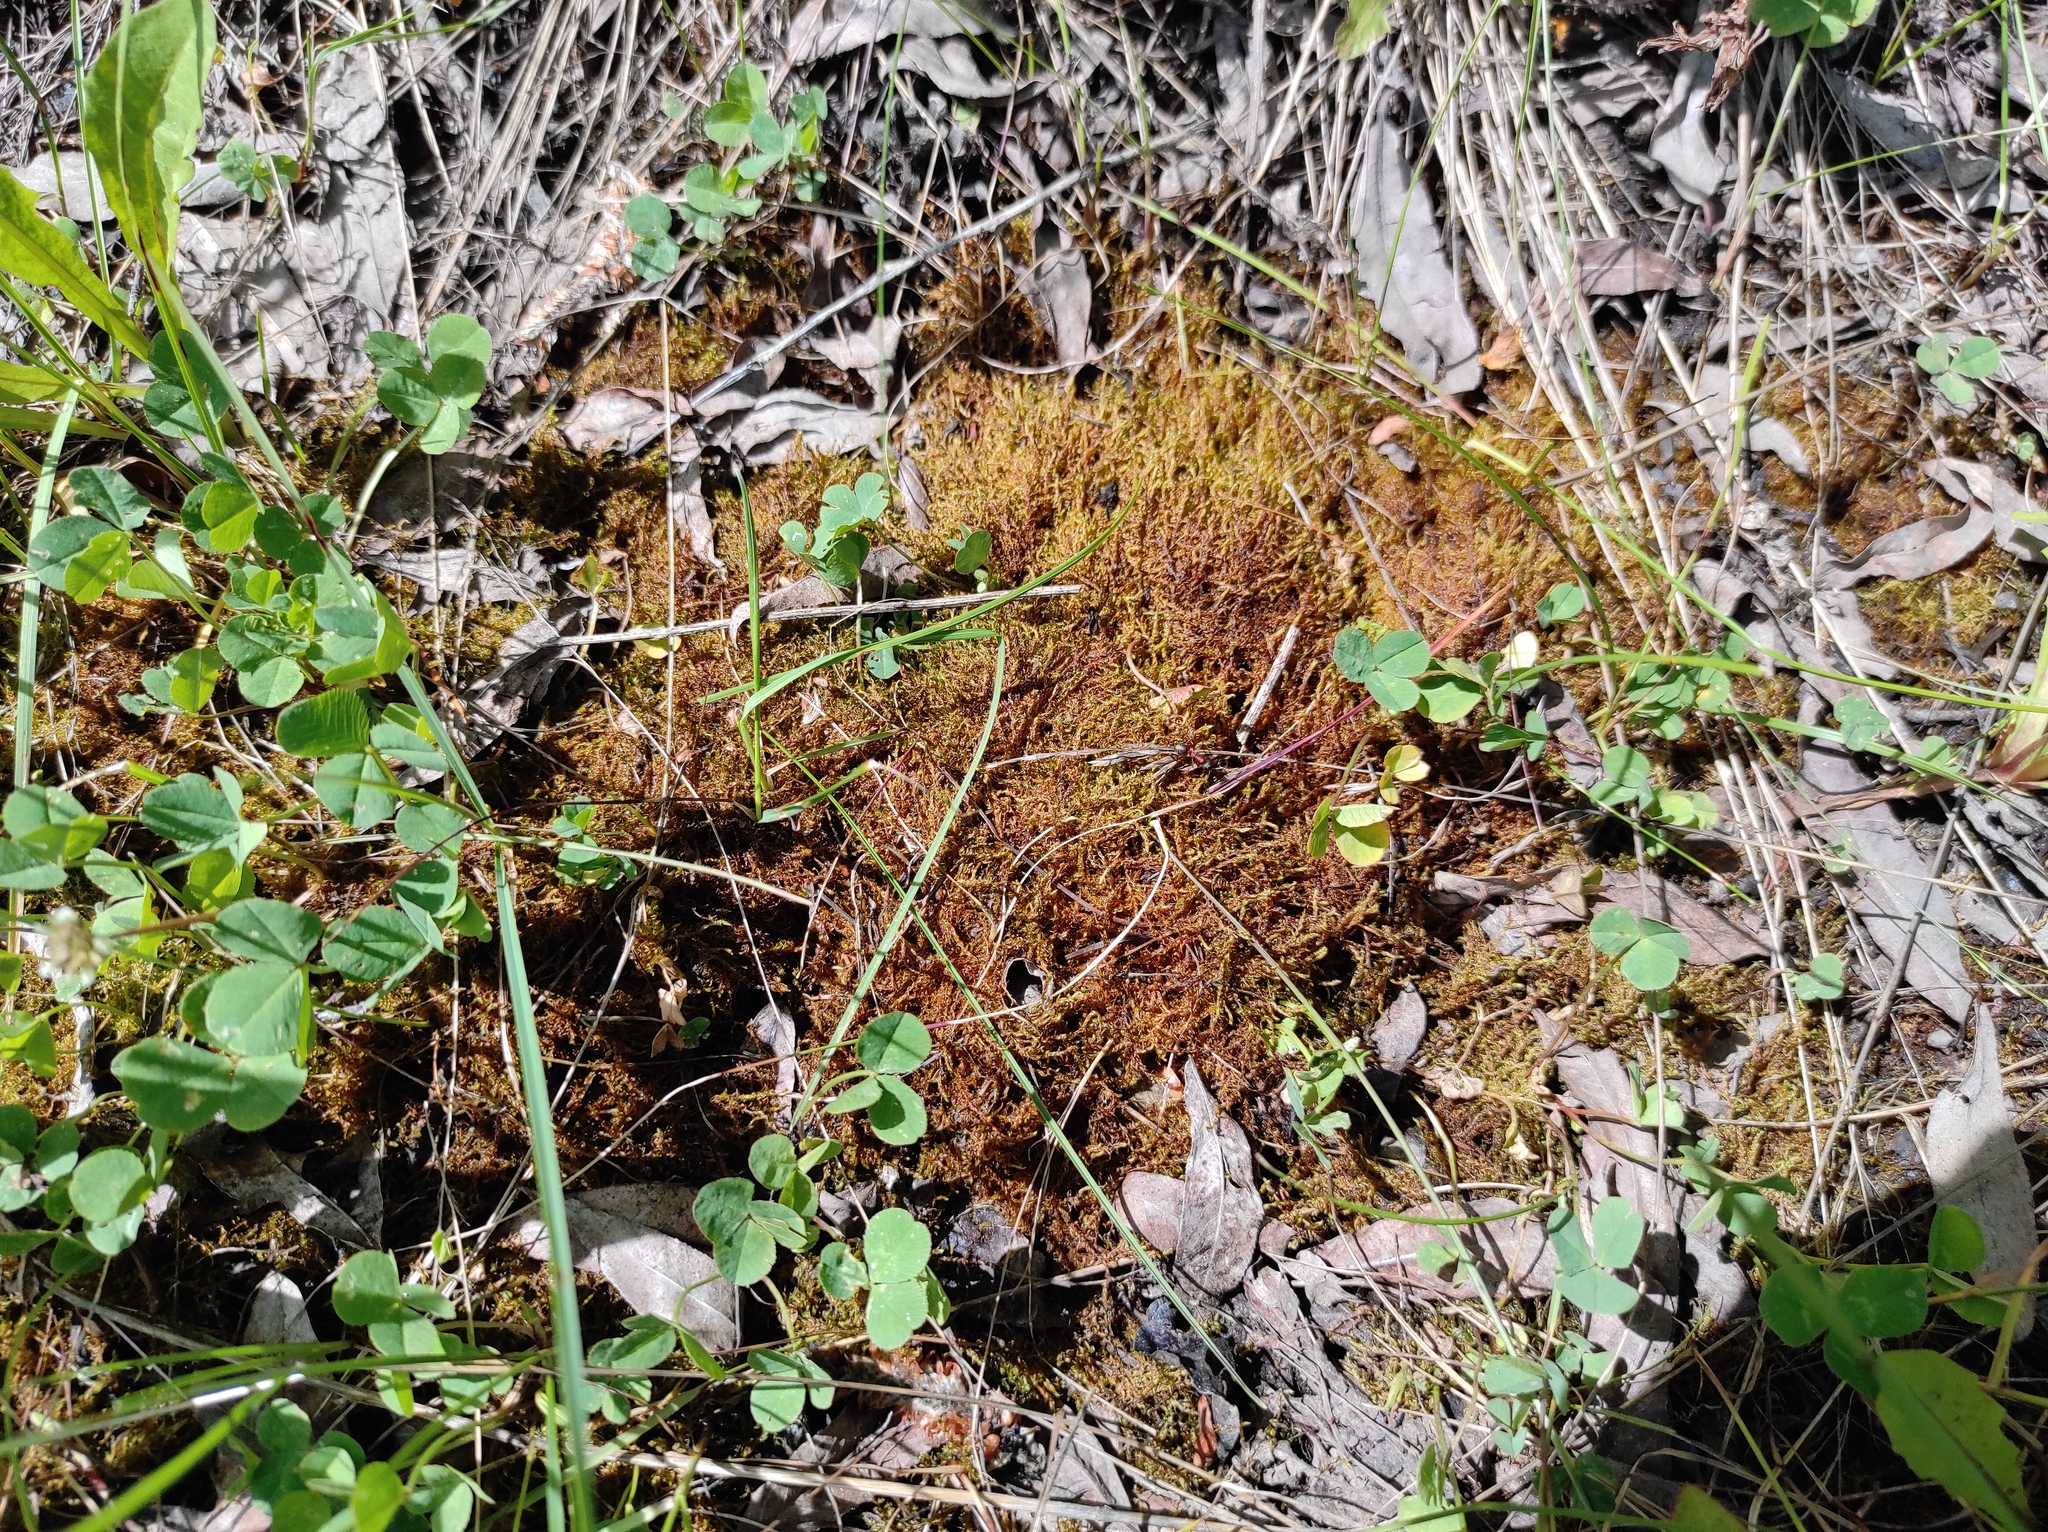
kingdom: Plantae
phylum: Tracheophyta
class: Magnoliopsida
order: Fabales
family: Fabaceae
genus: Trifolium
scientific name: Trifolium repens
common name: White clover
